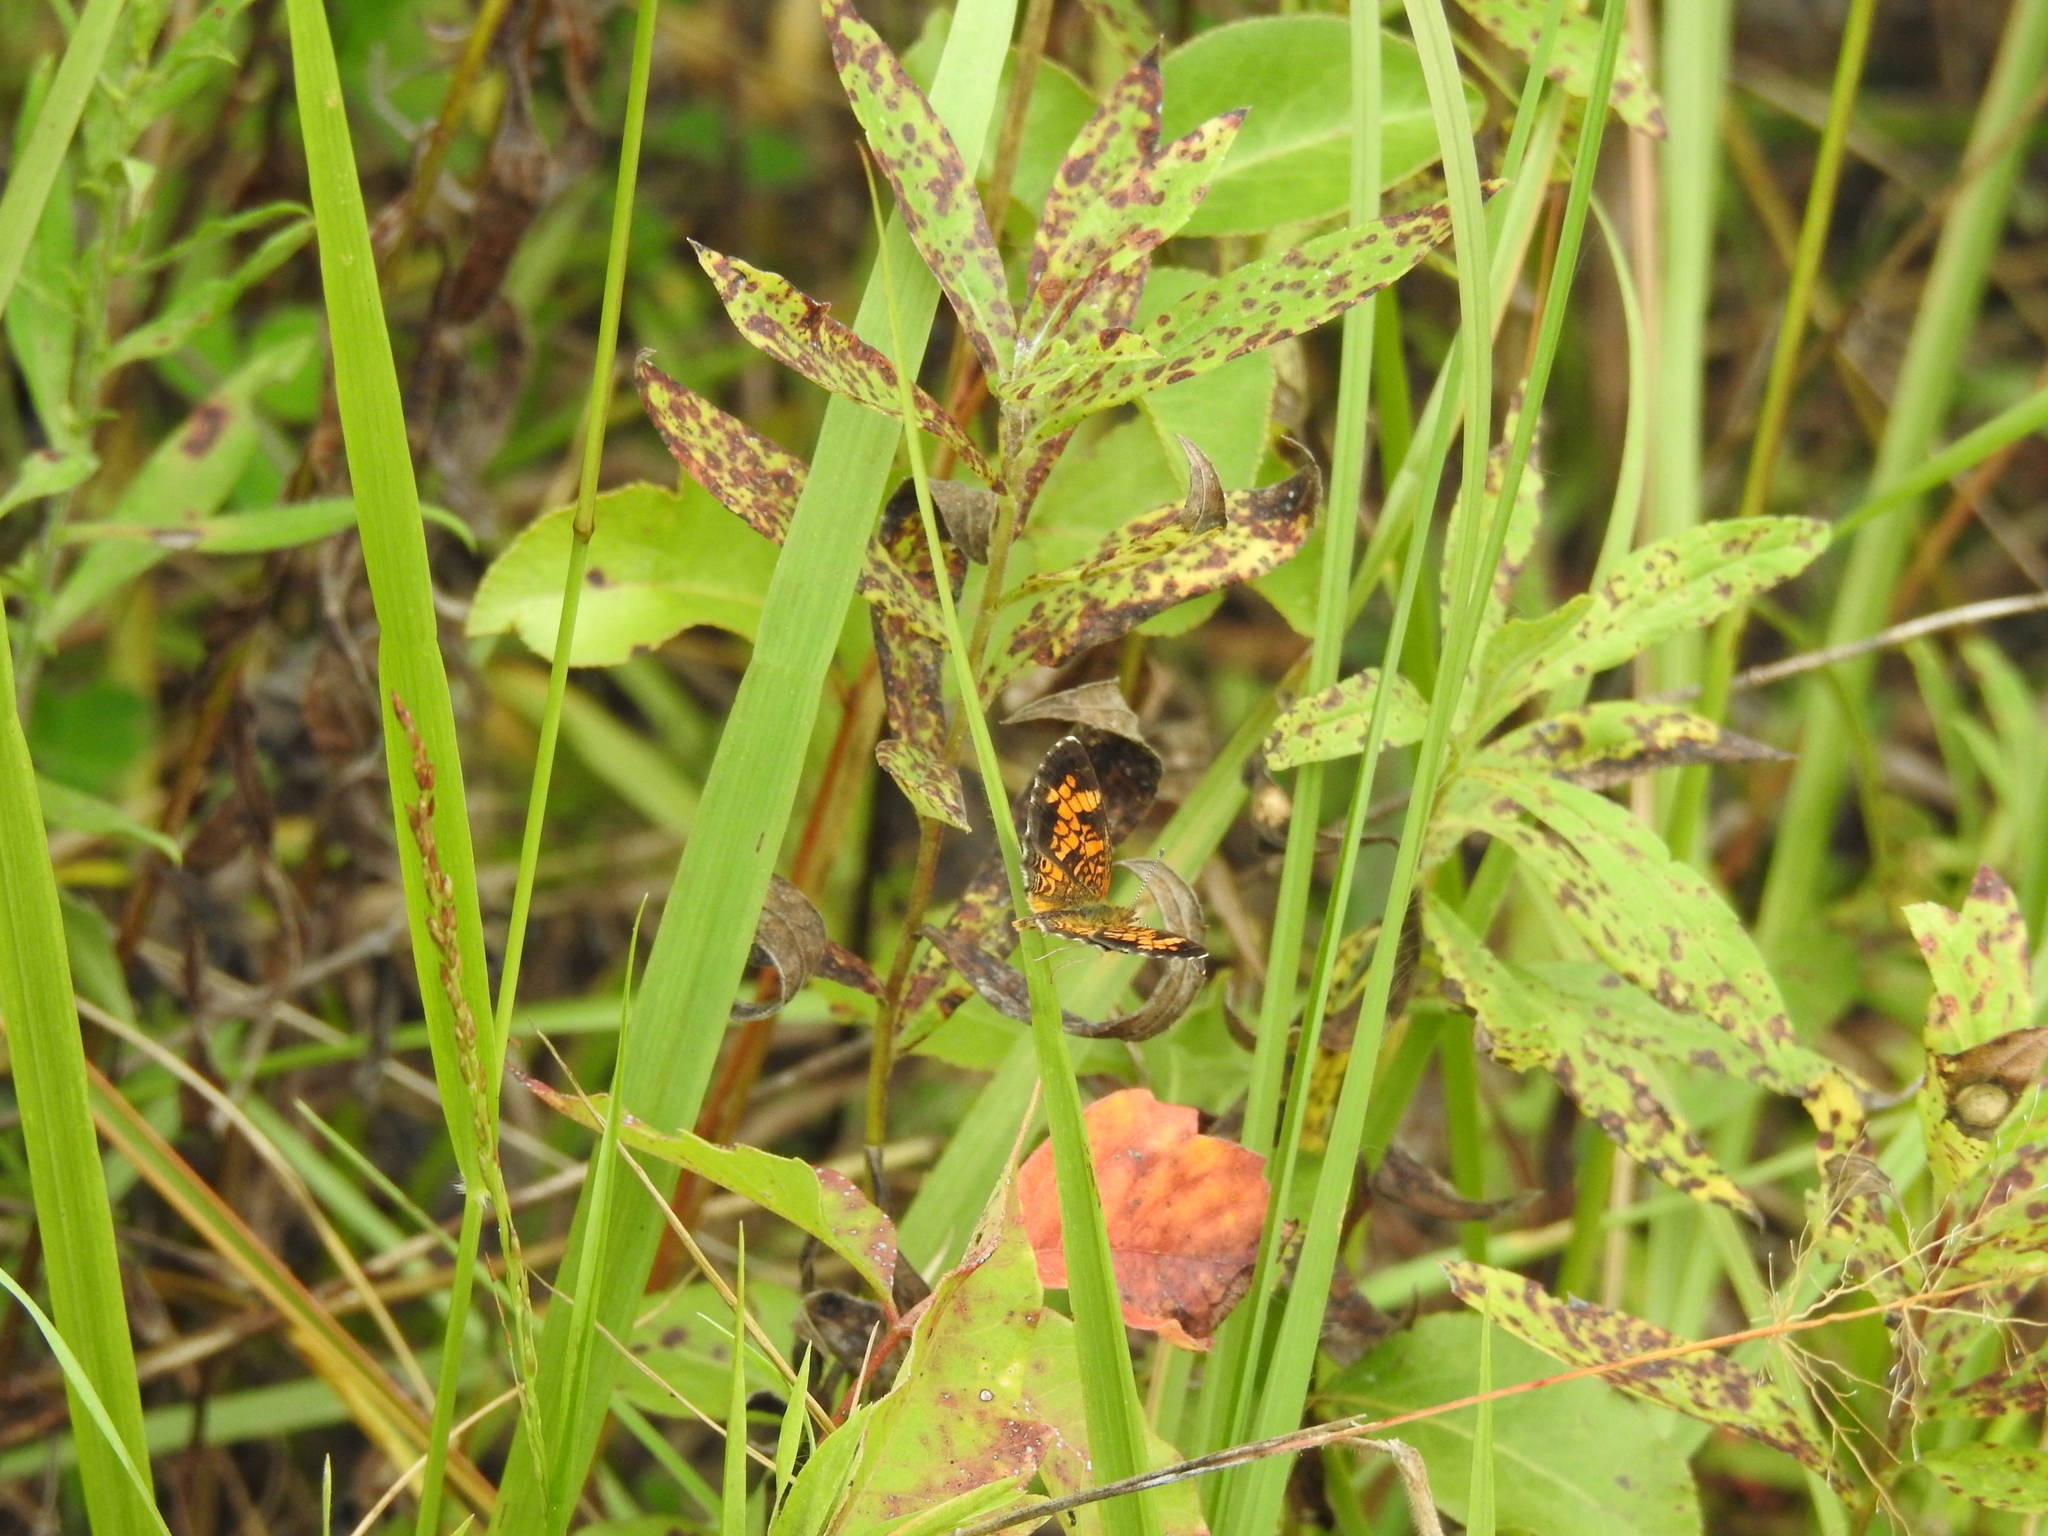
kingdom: Animalia
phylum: Arthropoda
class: Insecta
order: Lepidoptera
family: Nymphalidae
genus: Phyciodes
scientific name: Phyciodes tharos
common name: Pearl crescent
